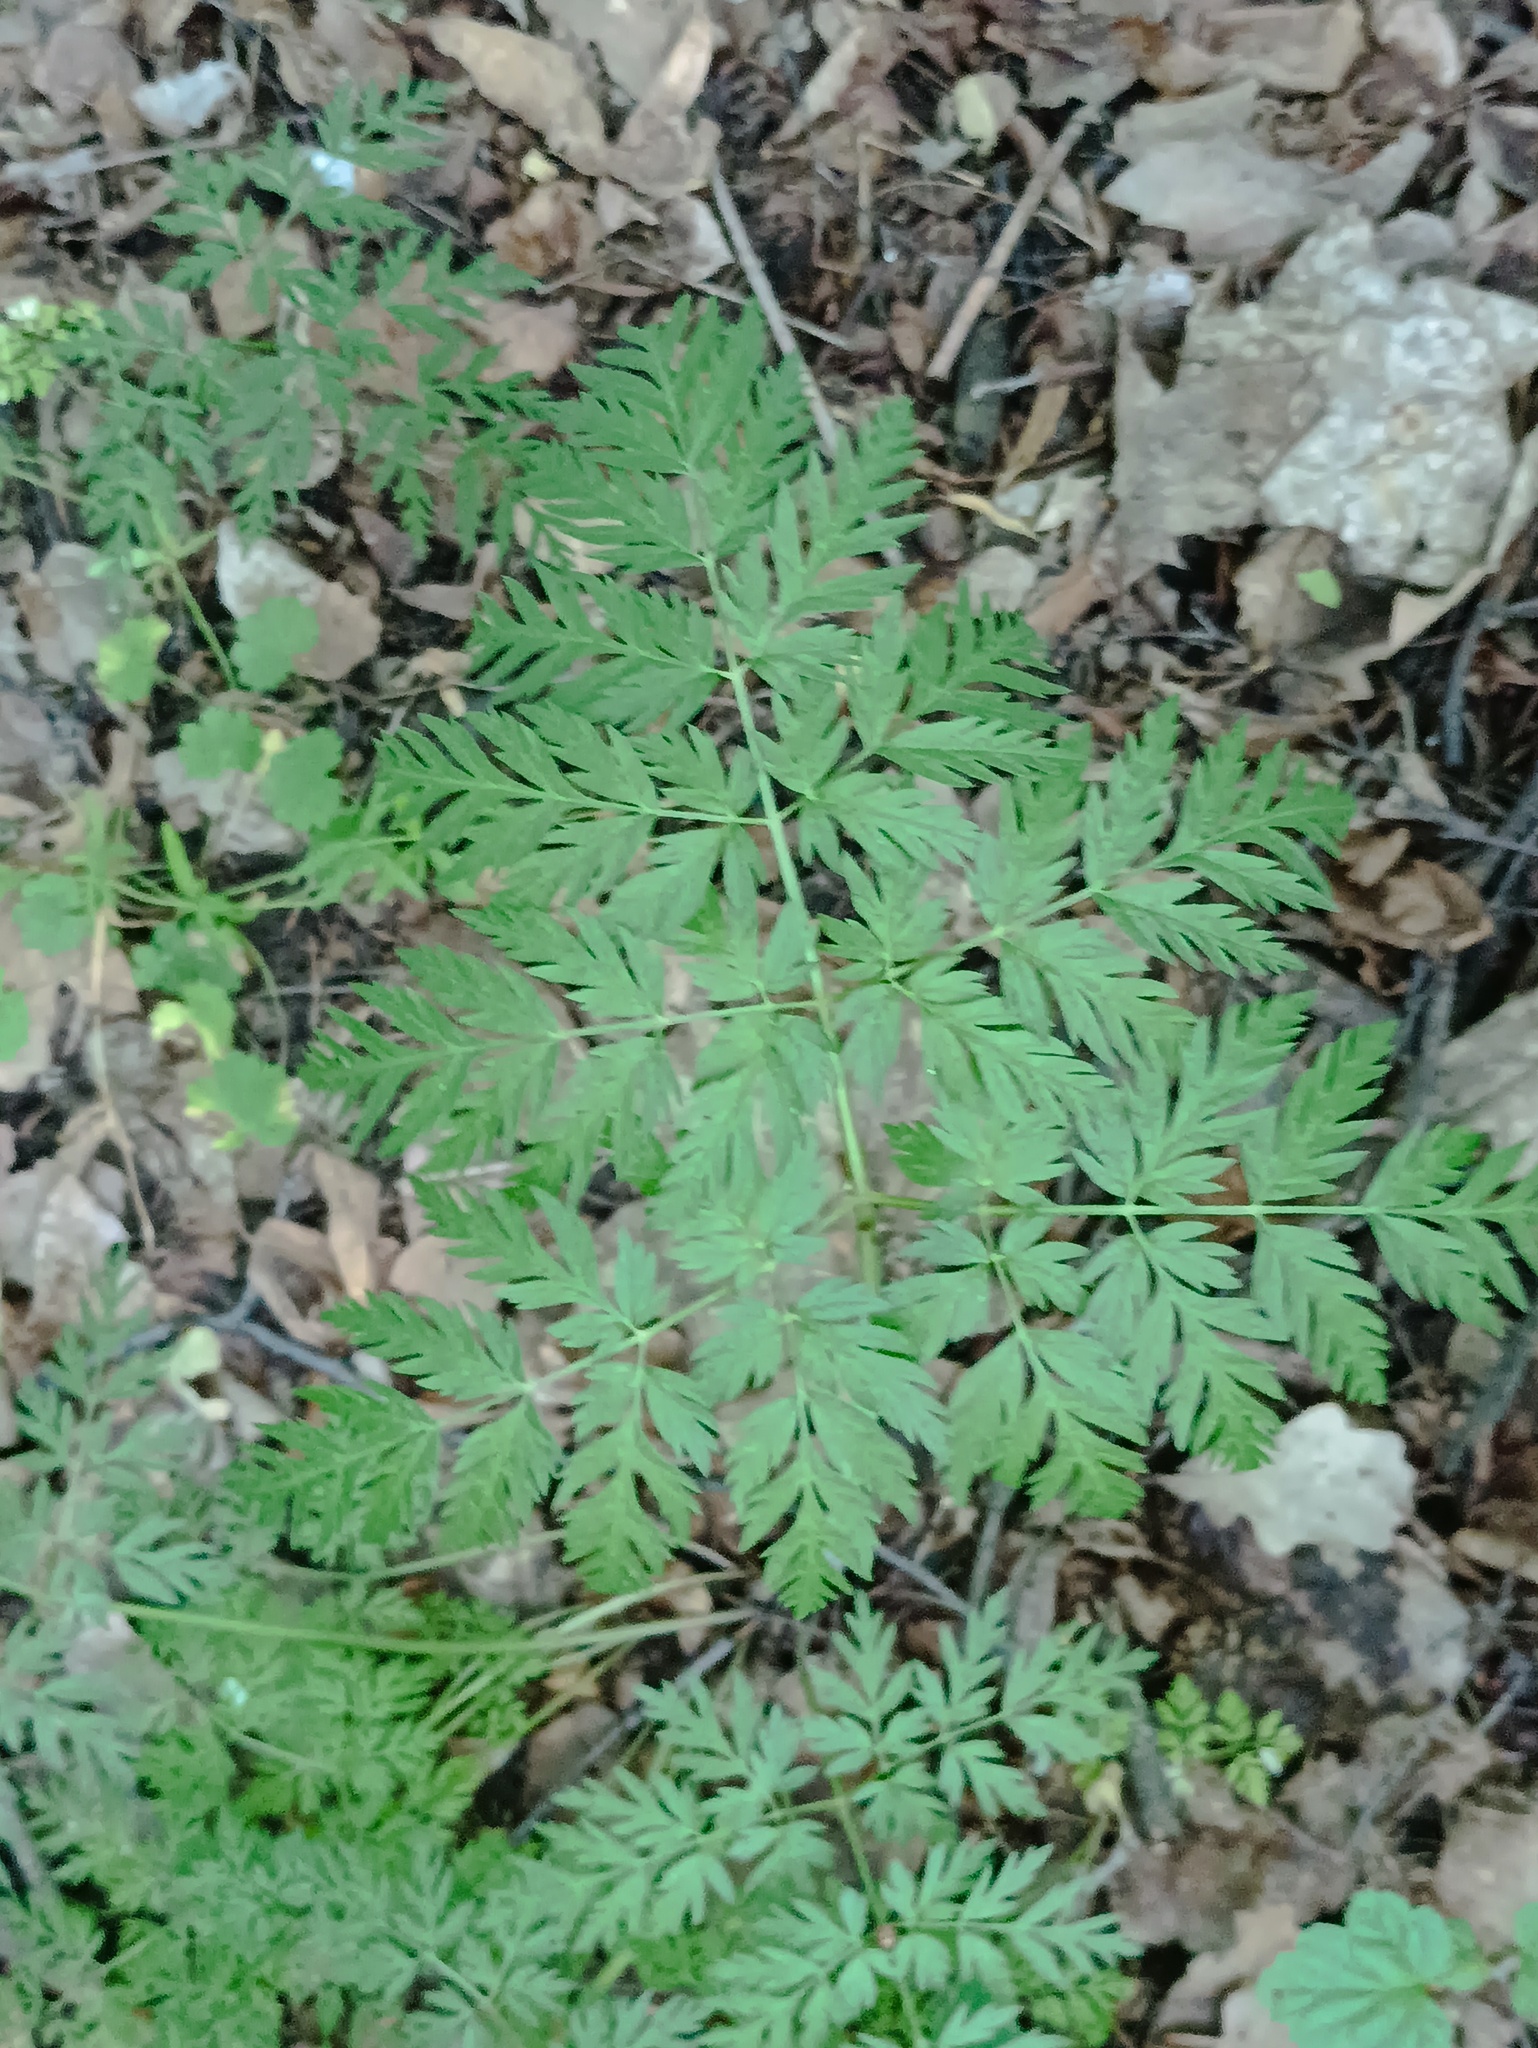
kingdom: Plantae
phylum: Tracheophyta
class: Magnoliopsida
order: Apiales
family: Apiaceae
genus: Anthriscus
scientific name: Anthriscus sylvestris
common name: Cow parsley
